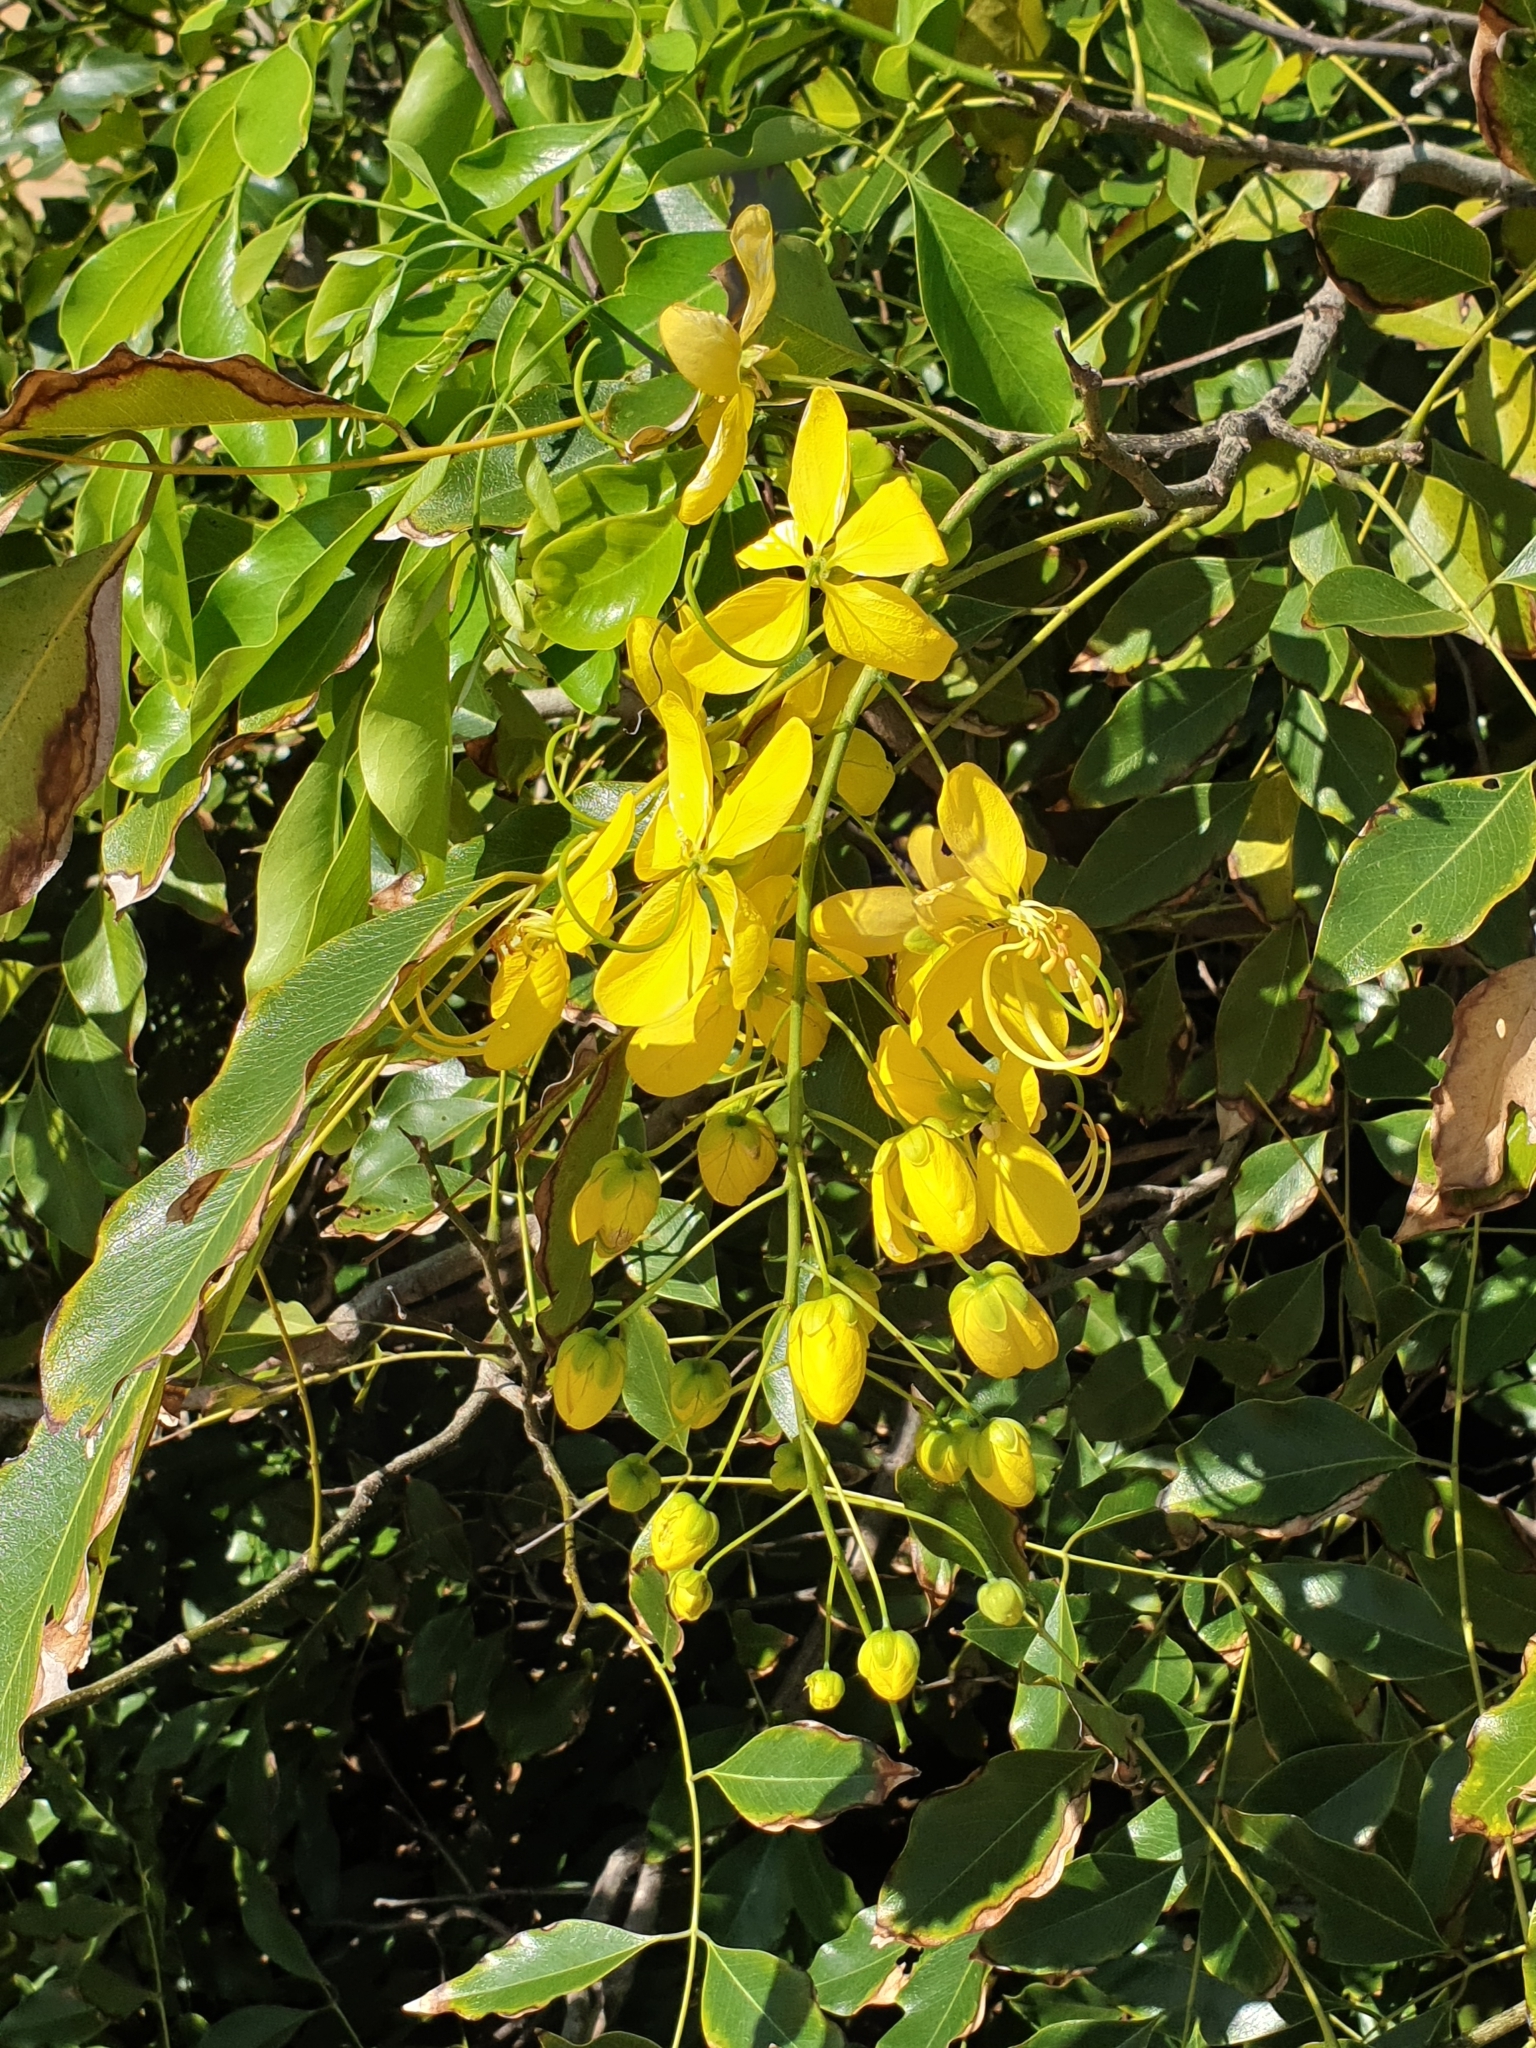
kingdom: Plantae
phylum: Tracheophyta
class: Magnoliopsida
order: Fabales
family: Fabaceae
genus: Cassia
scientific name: Cassia fistula
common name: Golden shower
